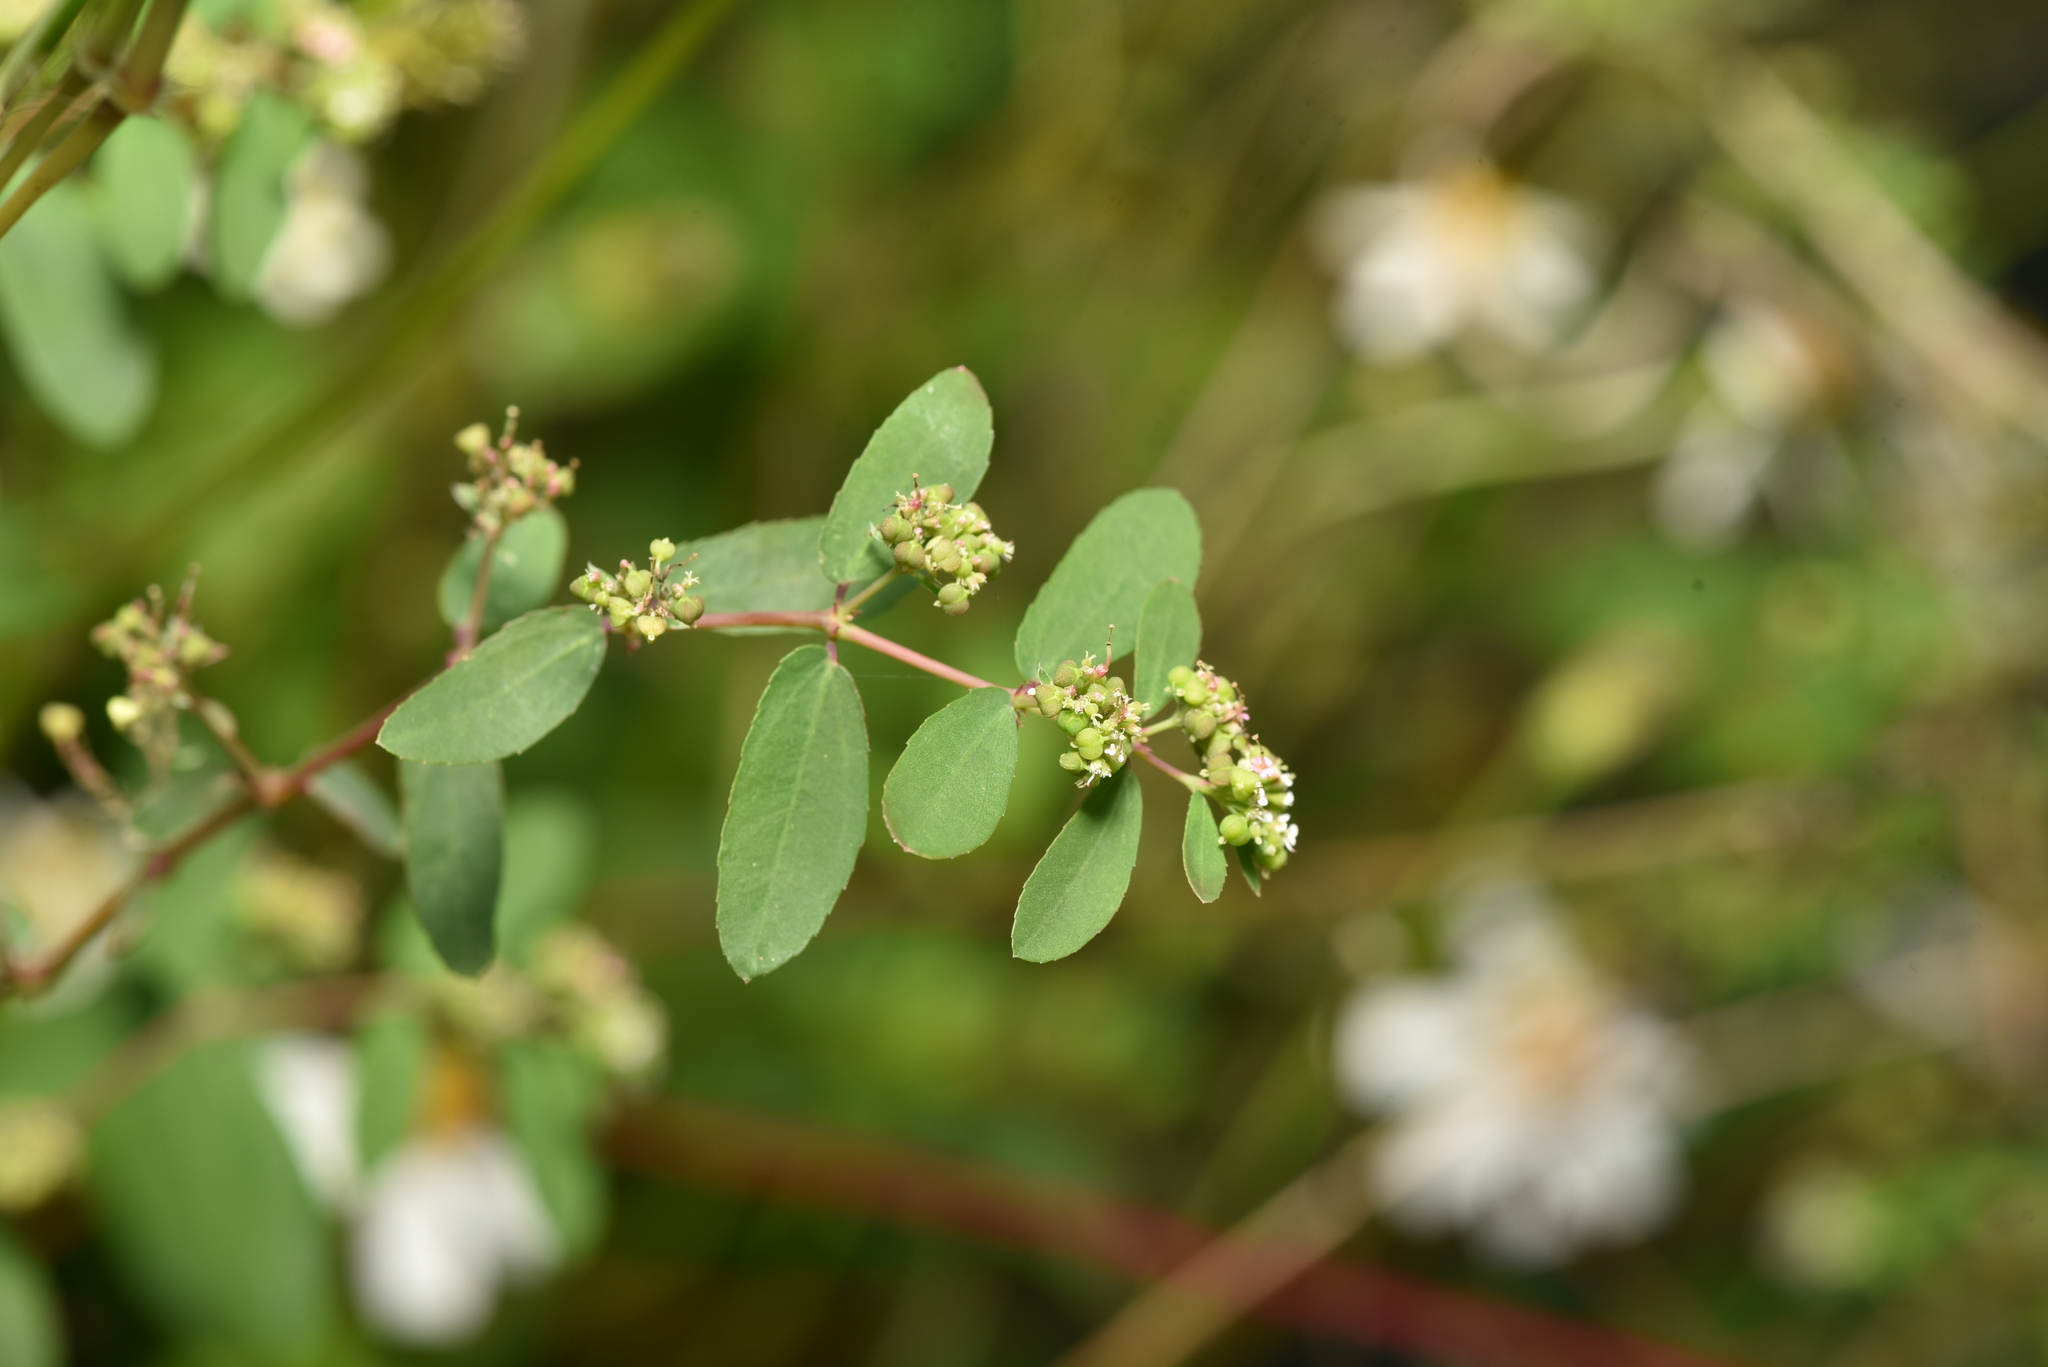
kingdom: Plantae
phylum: Tracheophyta
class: Magnoliopsida
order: Malpighiales
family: Euphorbiaceae
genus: Euphorbia
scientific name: Euphorbia hypericifolia
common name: Graceful sandmat
